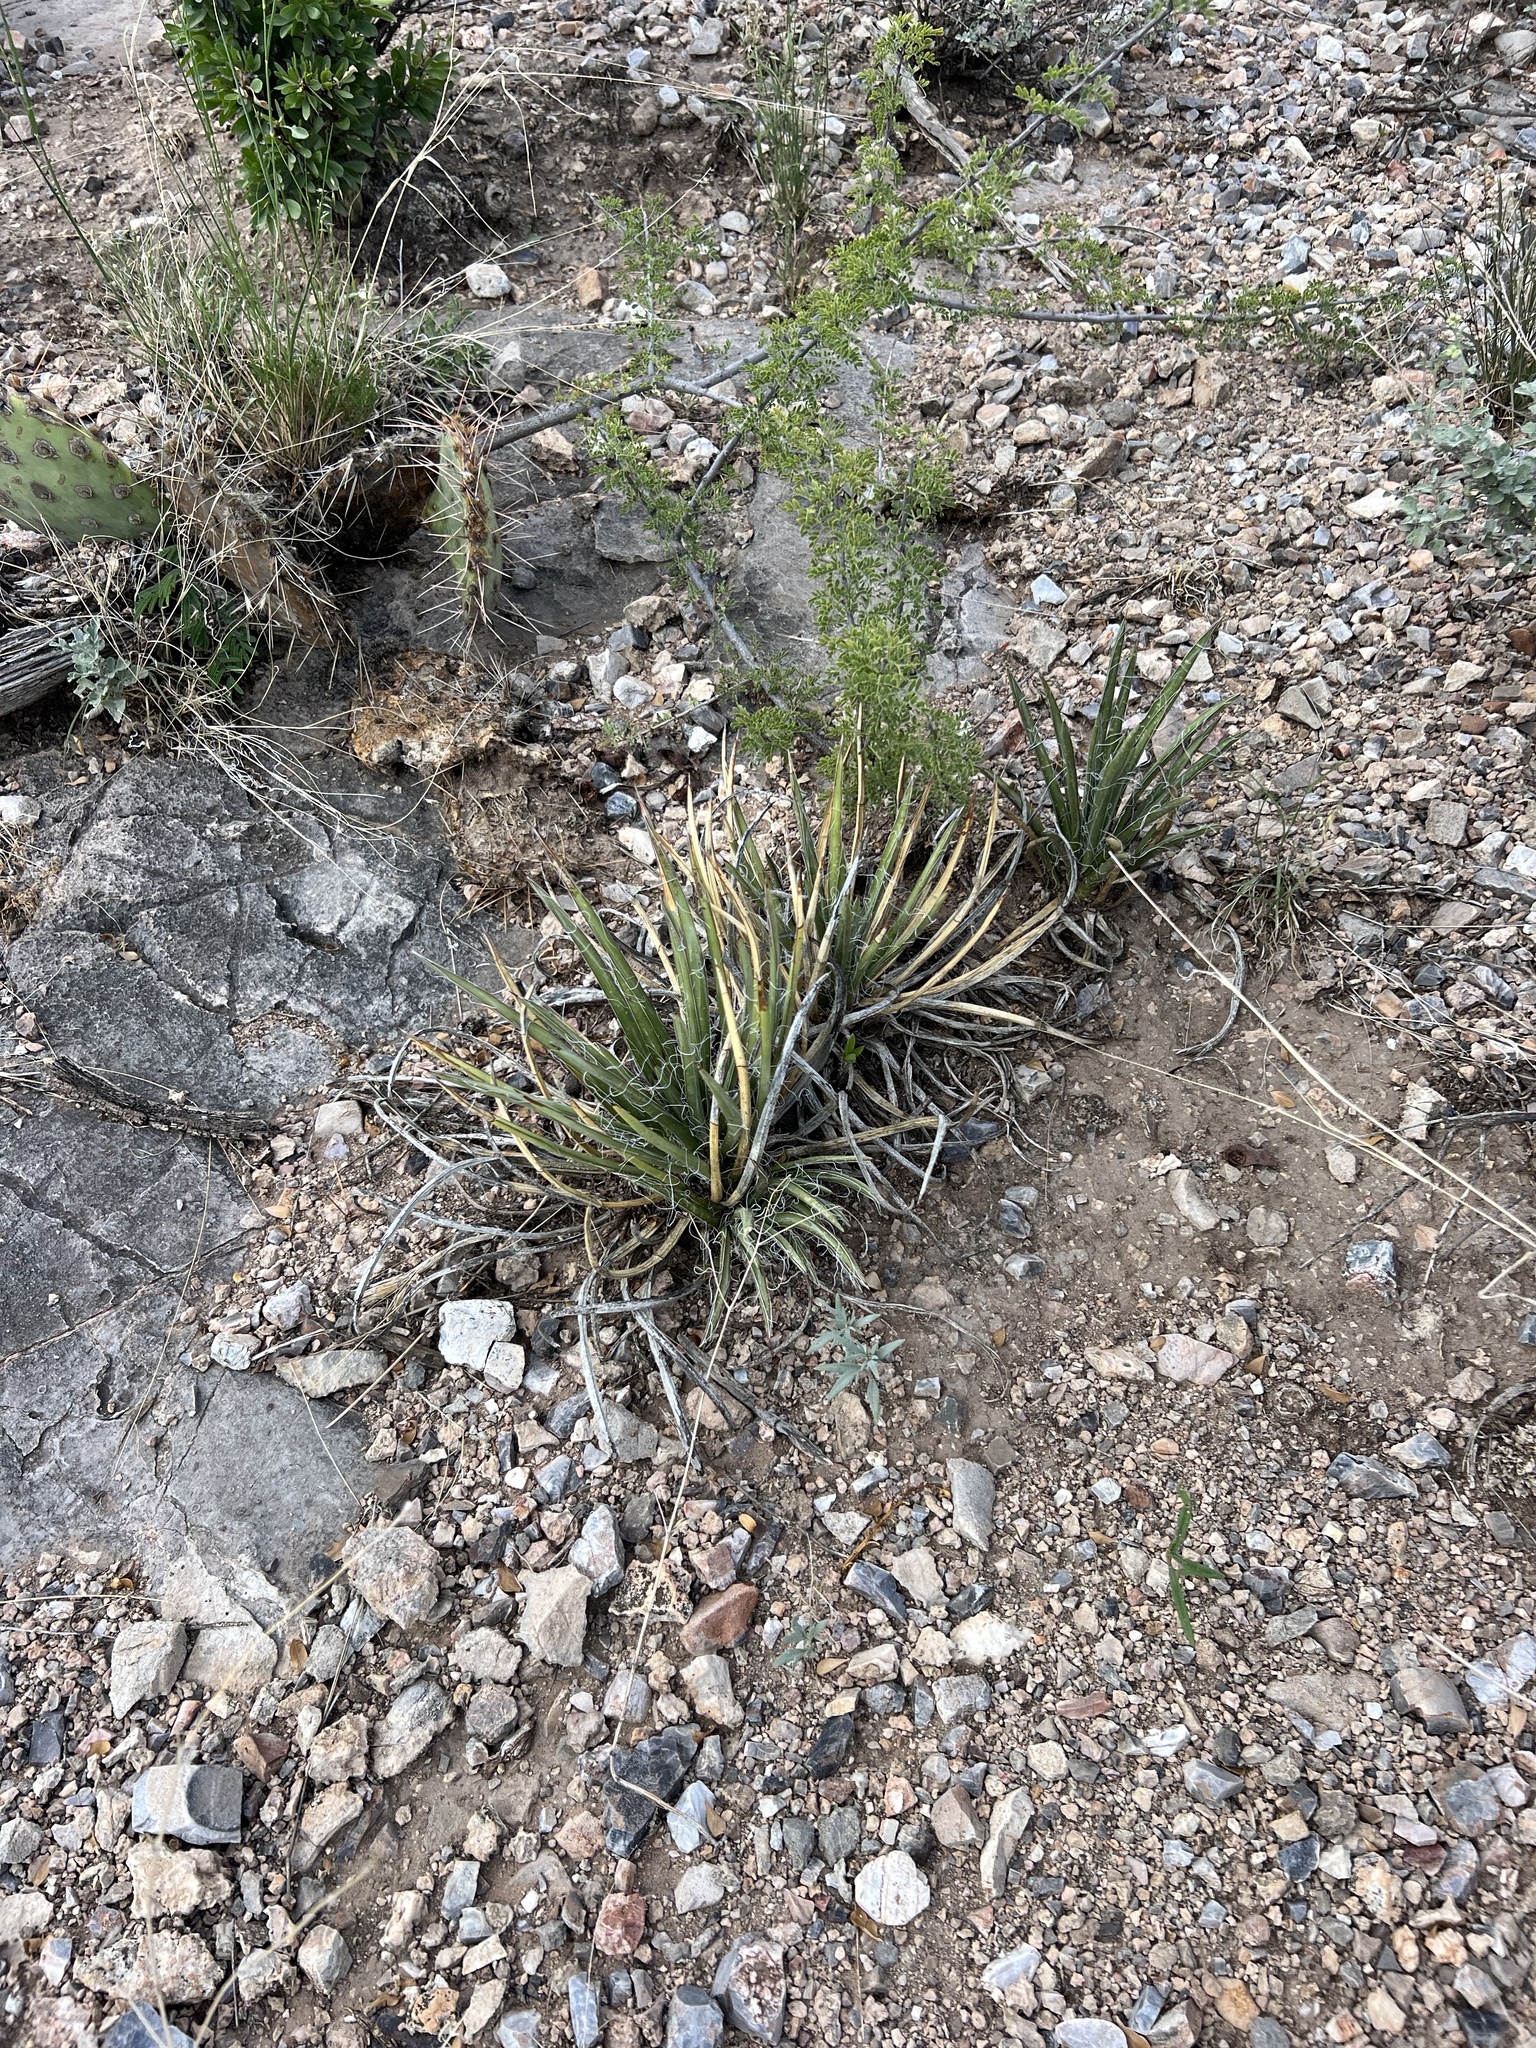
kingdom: Plantae
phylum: Tracheophyta
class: Liliopsida
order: Asparagales
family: Asparagaceae
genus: Agave
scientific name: Agave schottii
